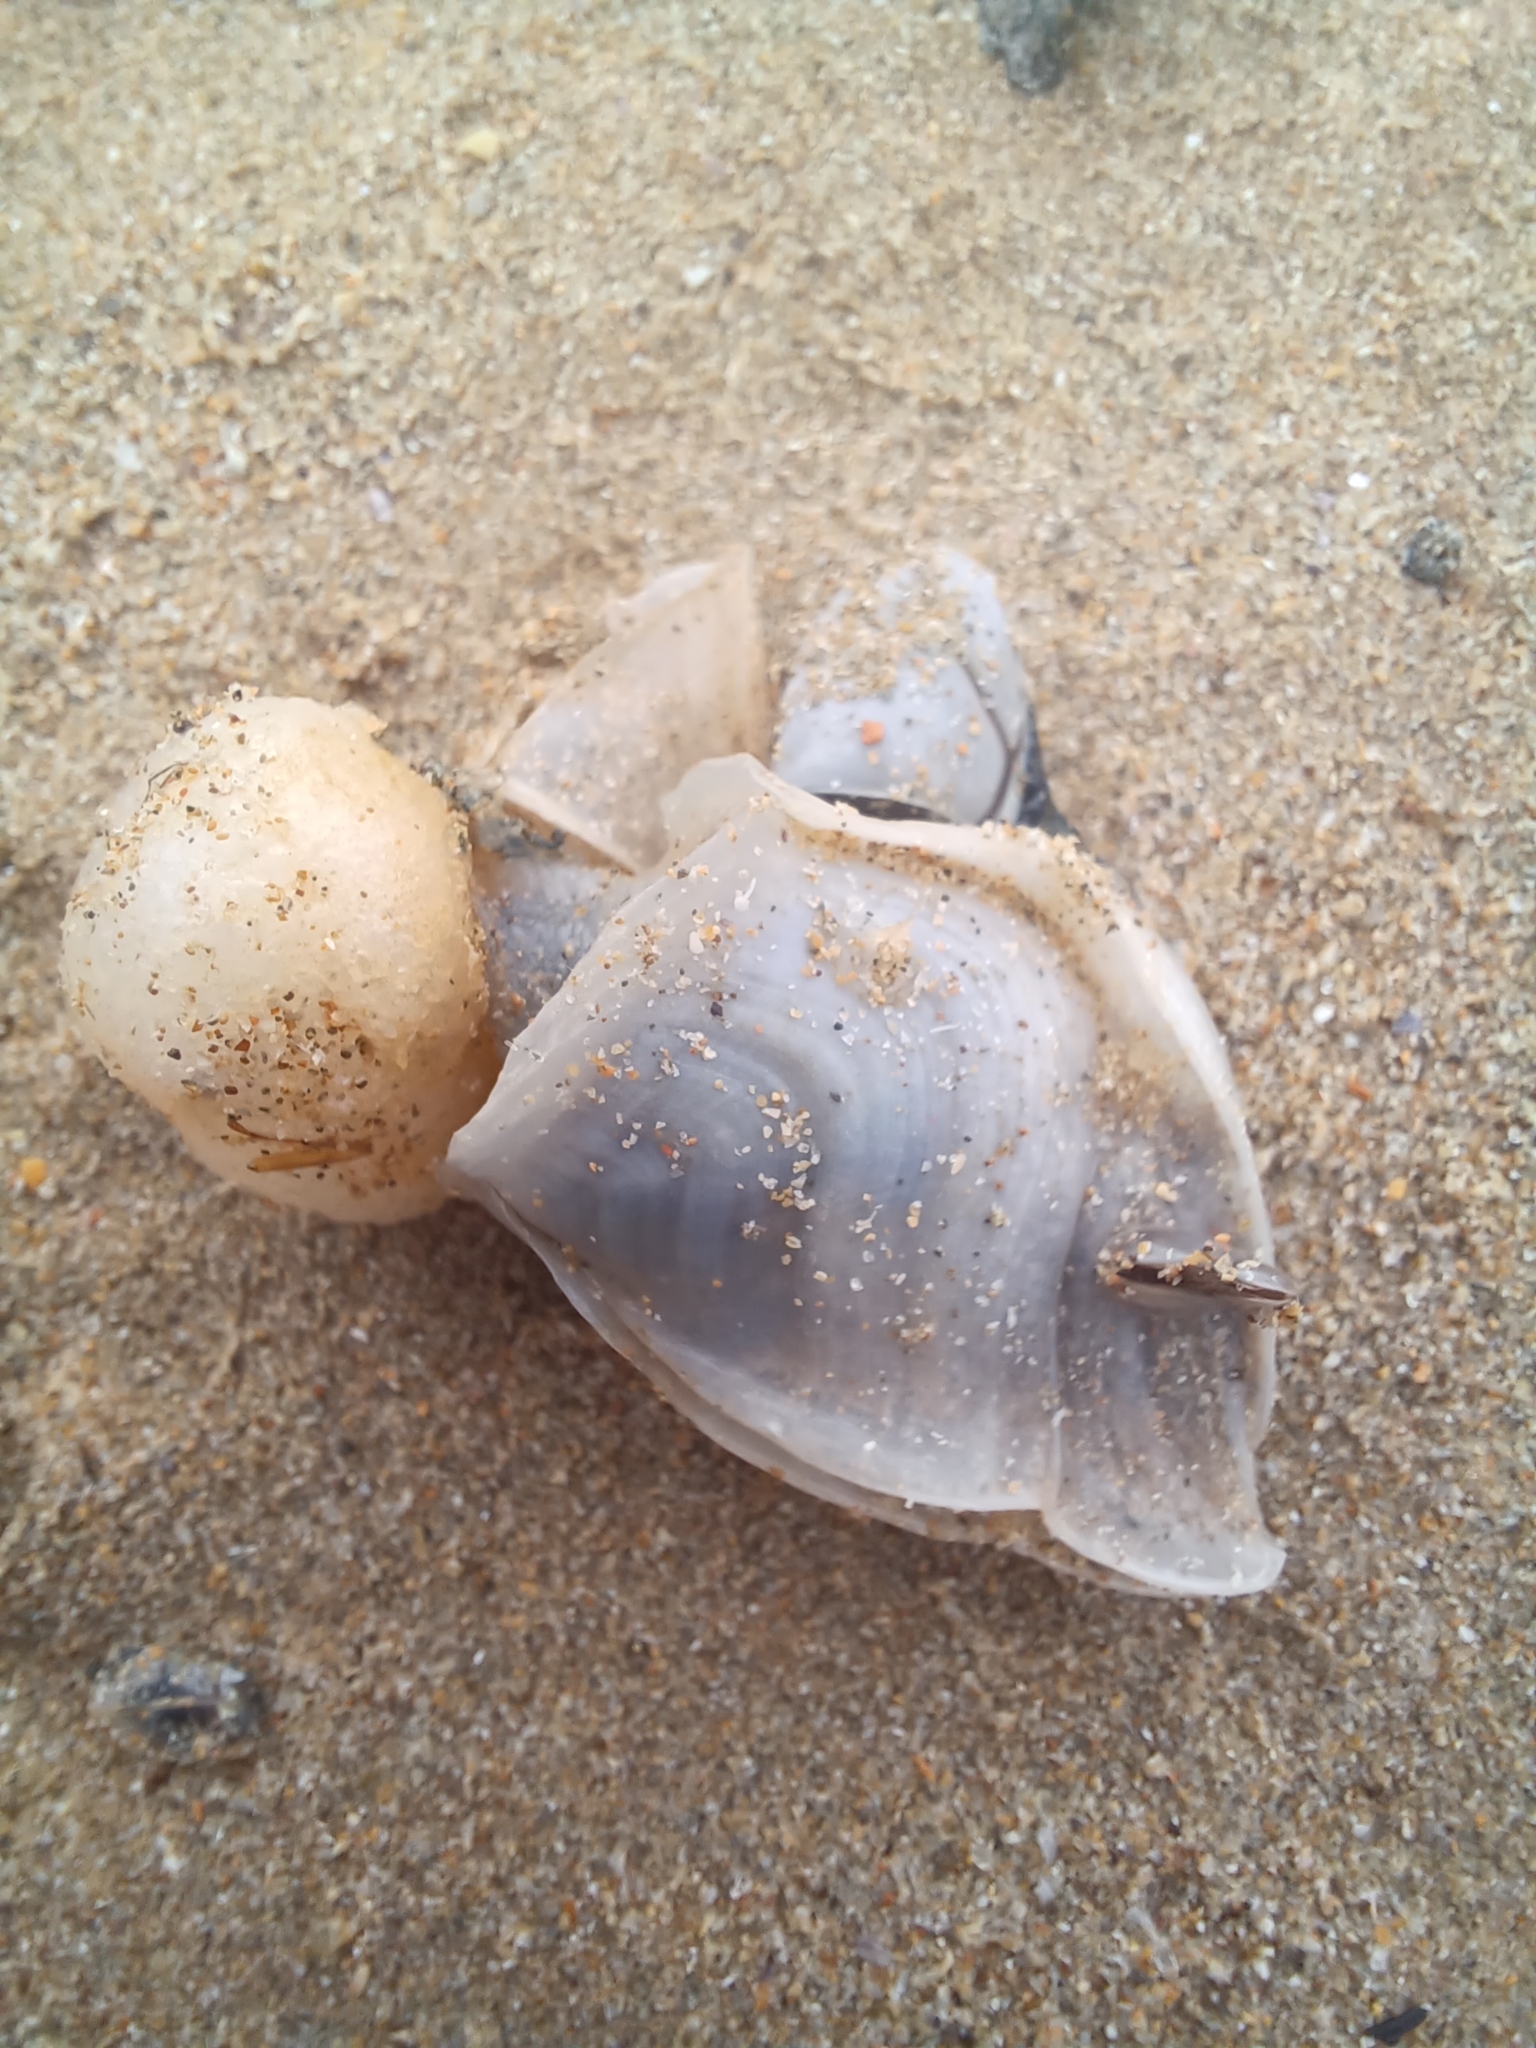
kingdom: Animalia
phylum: Arthropoda
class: Maxillopoda
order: Pedunculata
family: Lepadidae
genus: Dosima
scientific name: Dosima fascicularis
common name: Buoy barnacle
